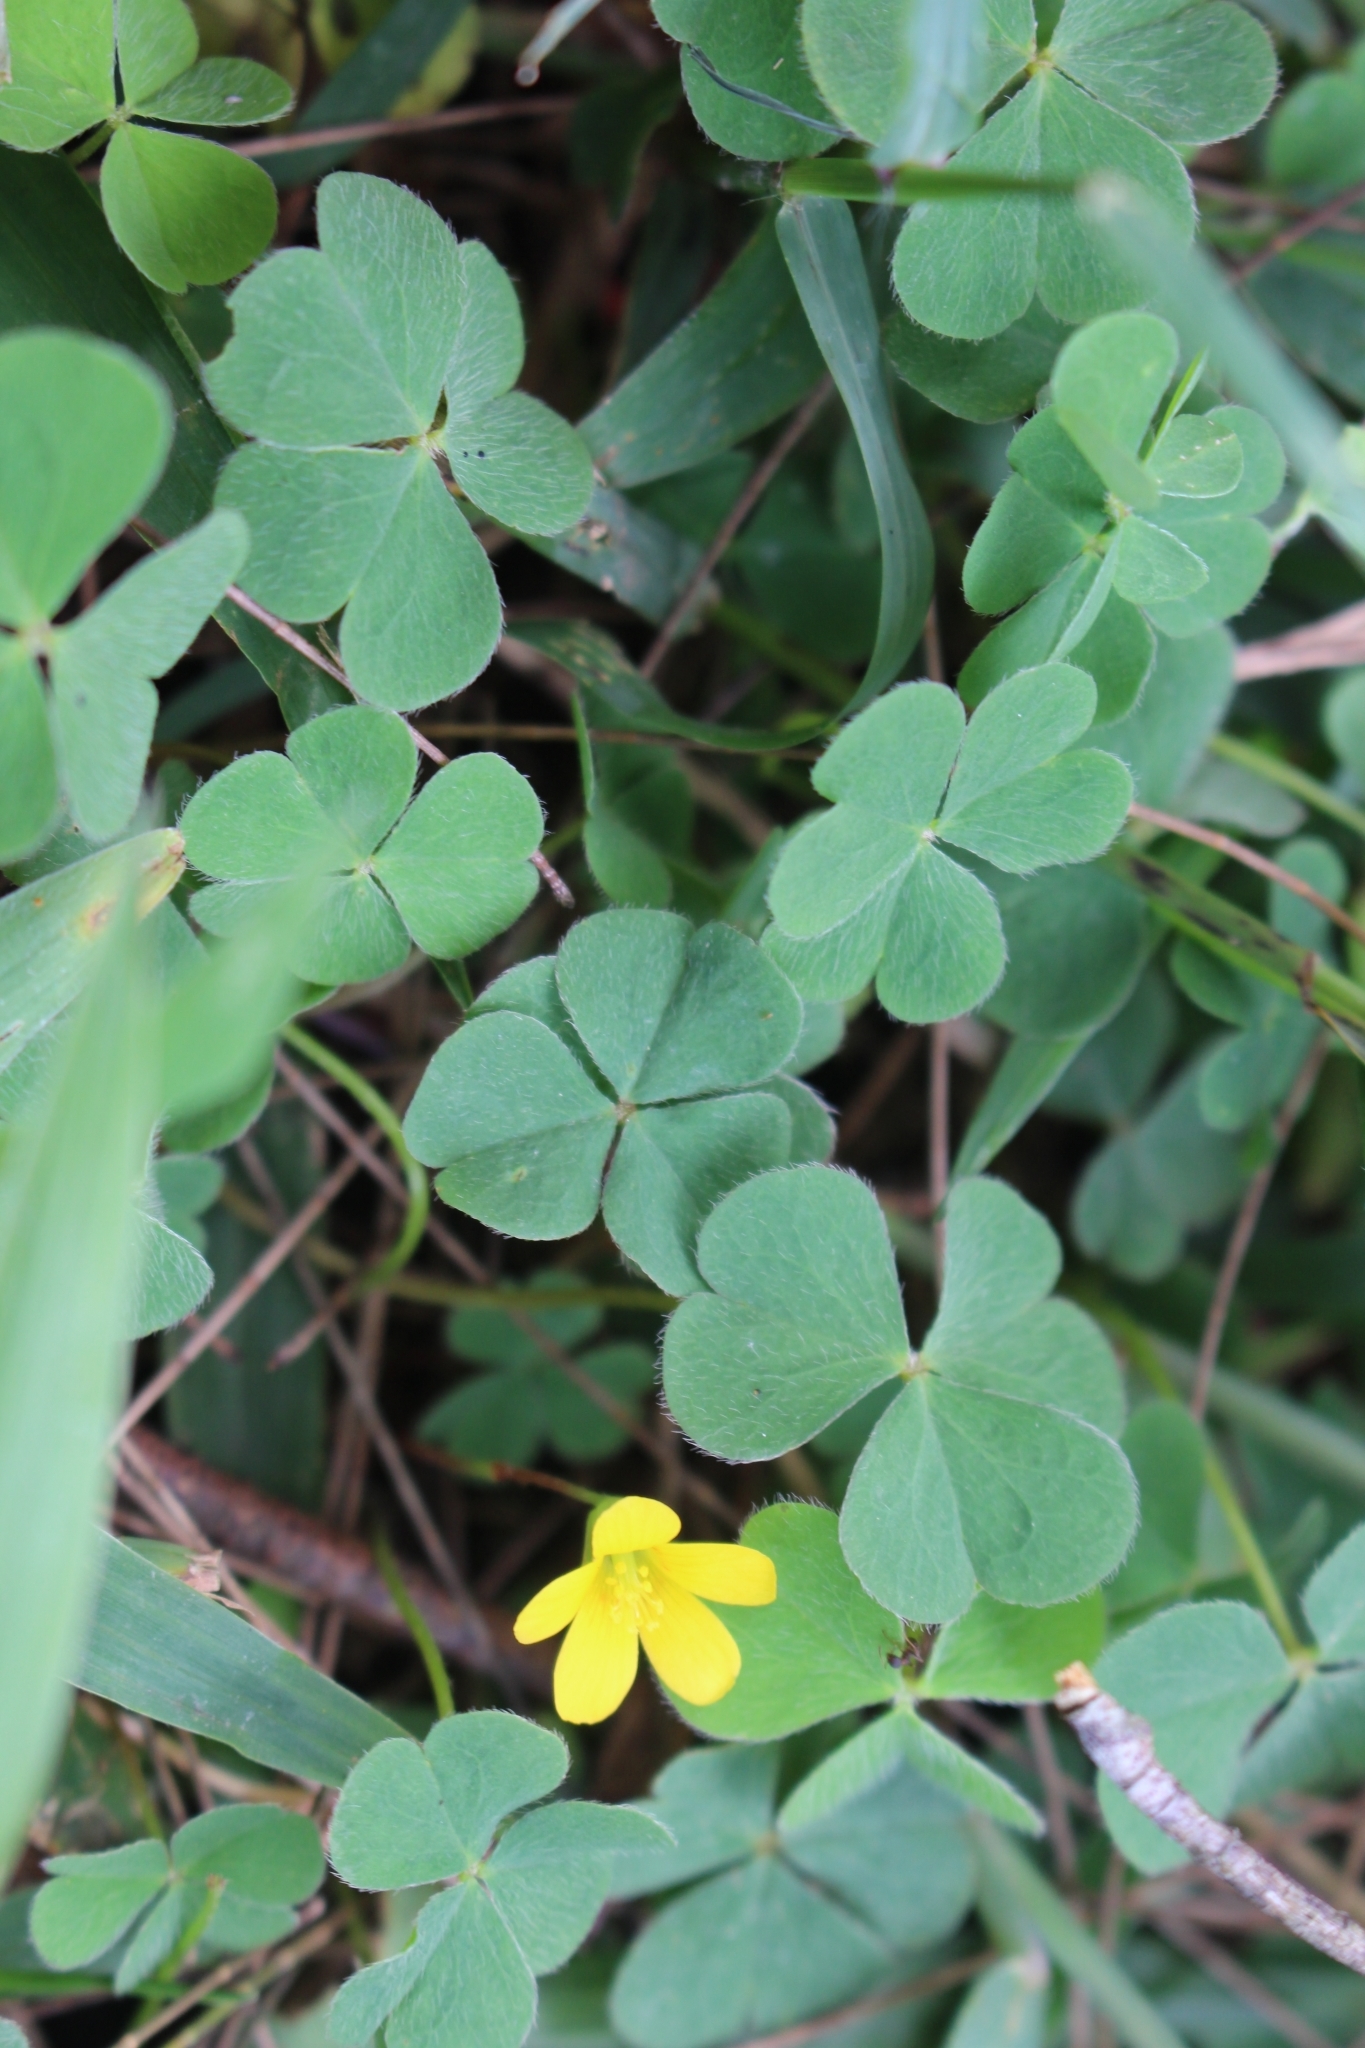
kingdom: Plantae
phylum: Tracheophyta
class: Magnoliopsida
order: Oxalidales
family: Oxalidaceae
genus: Oxalis
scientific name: Oxalis corniculata
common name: Procumbent yellow-sorrel
